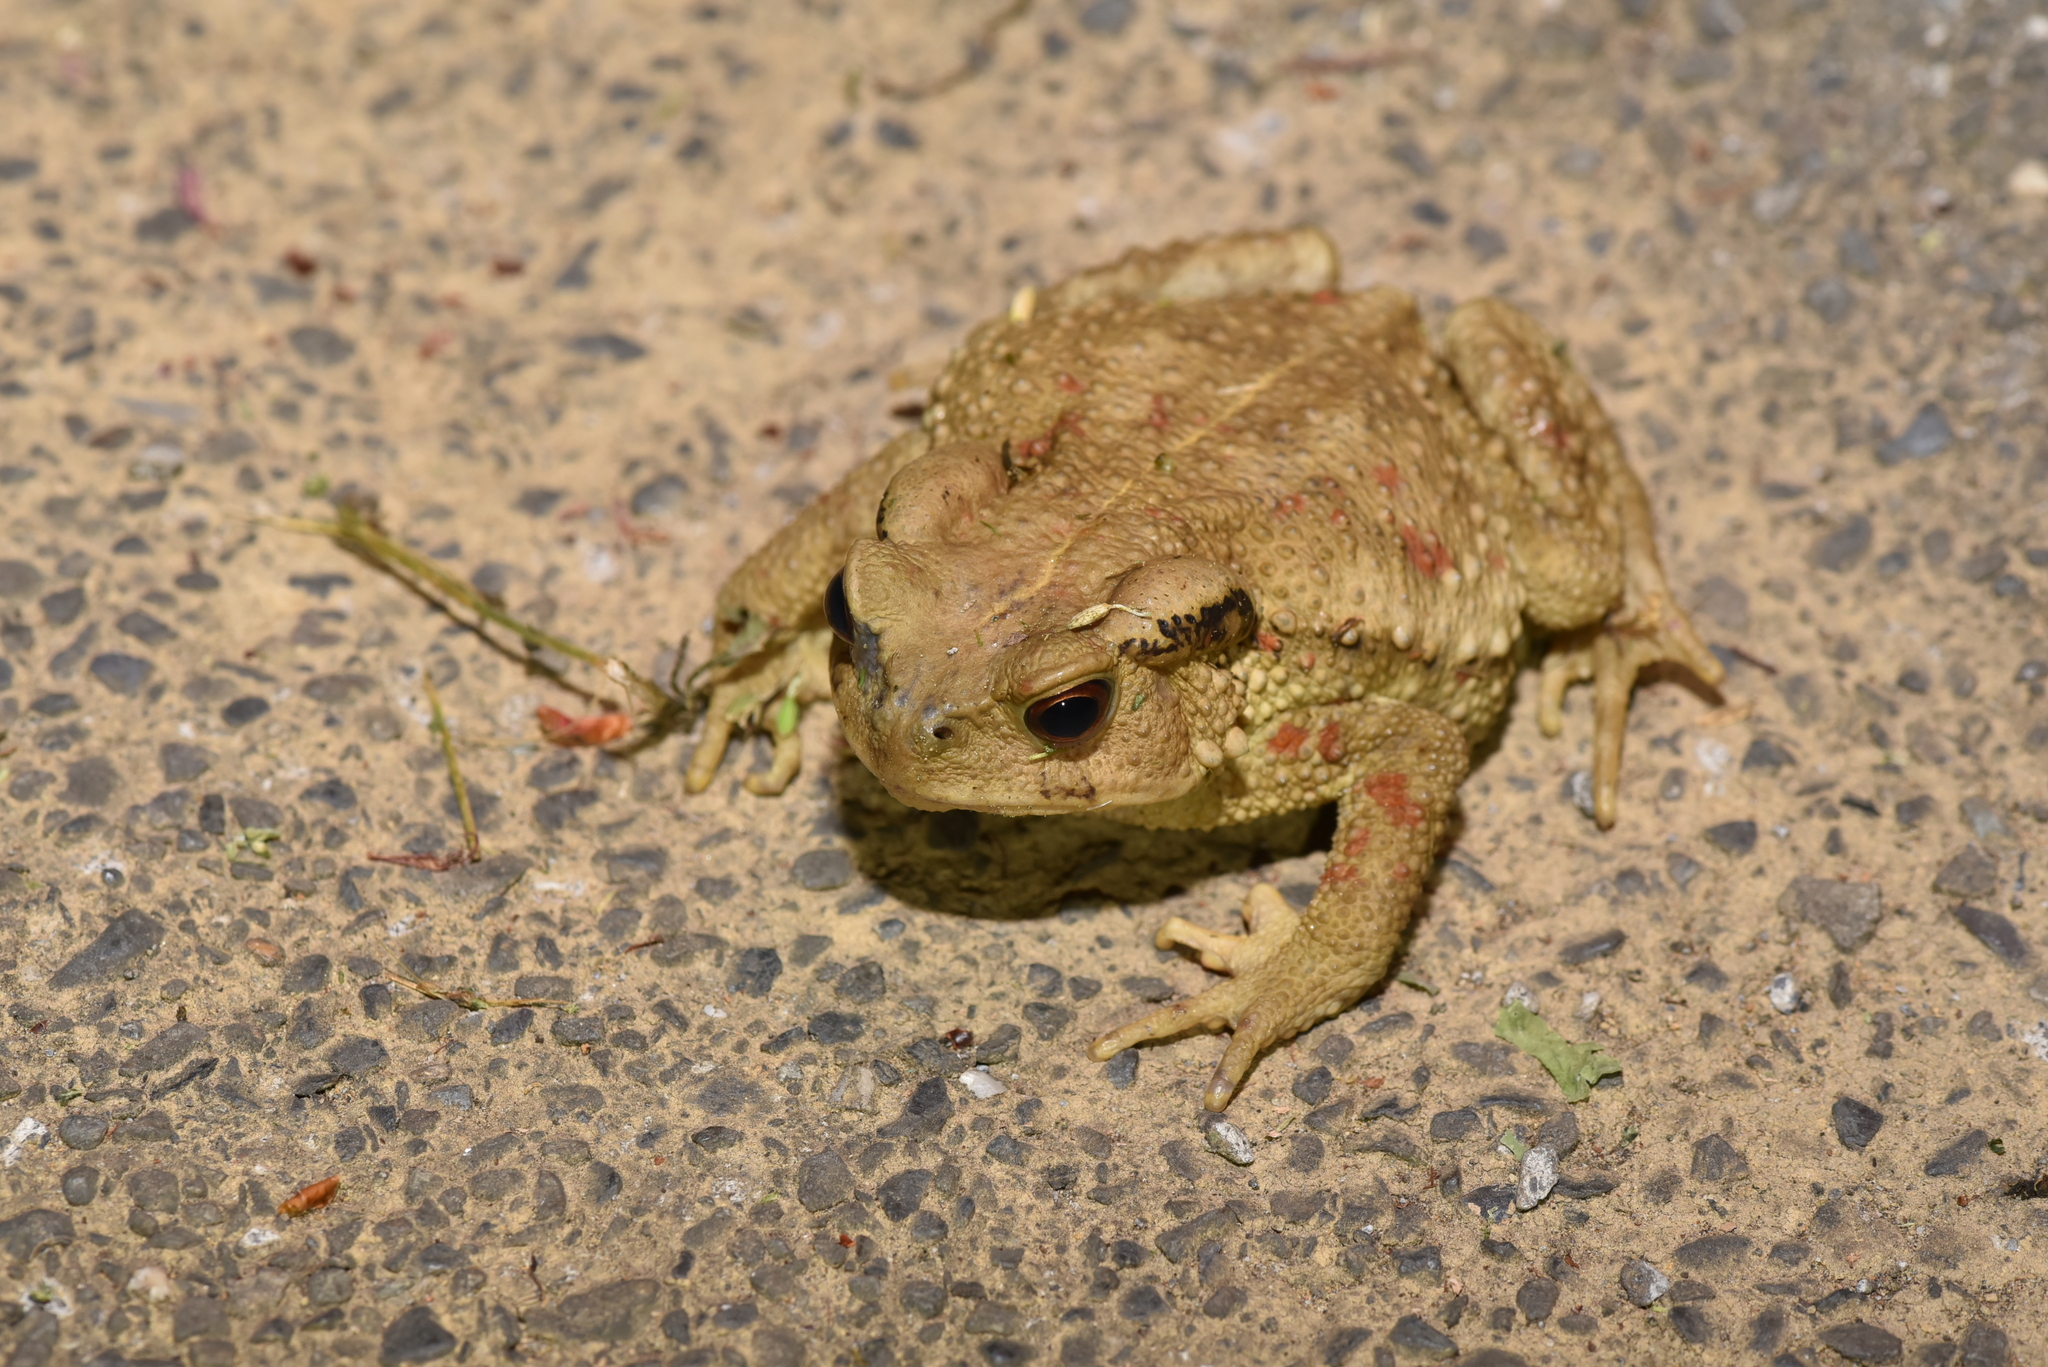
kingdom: Animalia
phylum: Chordata
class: Amphibia
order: Anura
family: Bufonidae
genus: Bufo
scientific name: Bufo bankorensis
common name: Bankor toad
